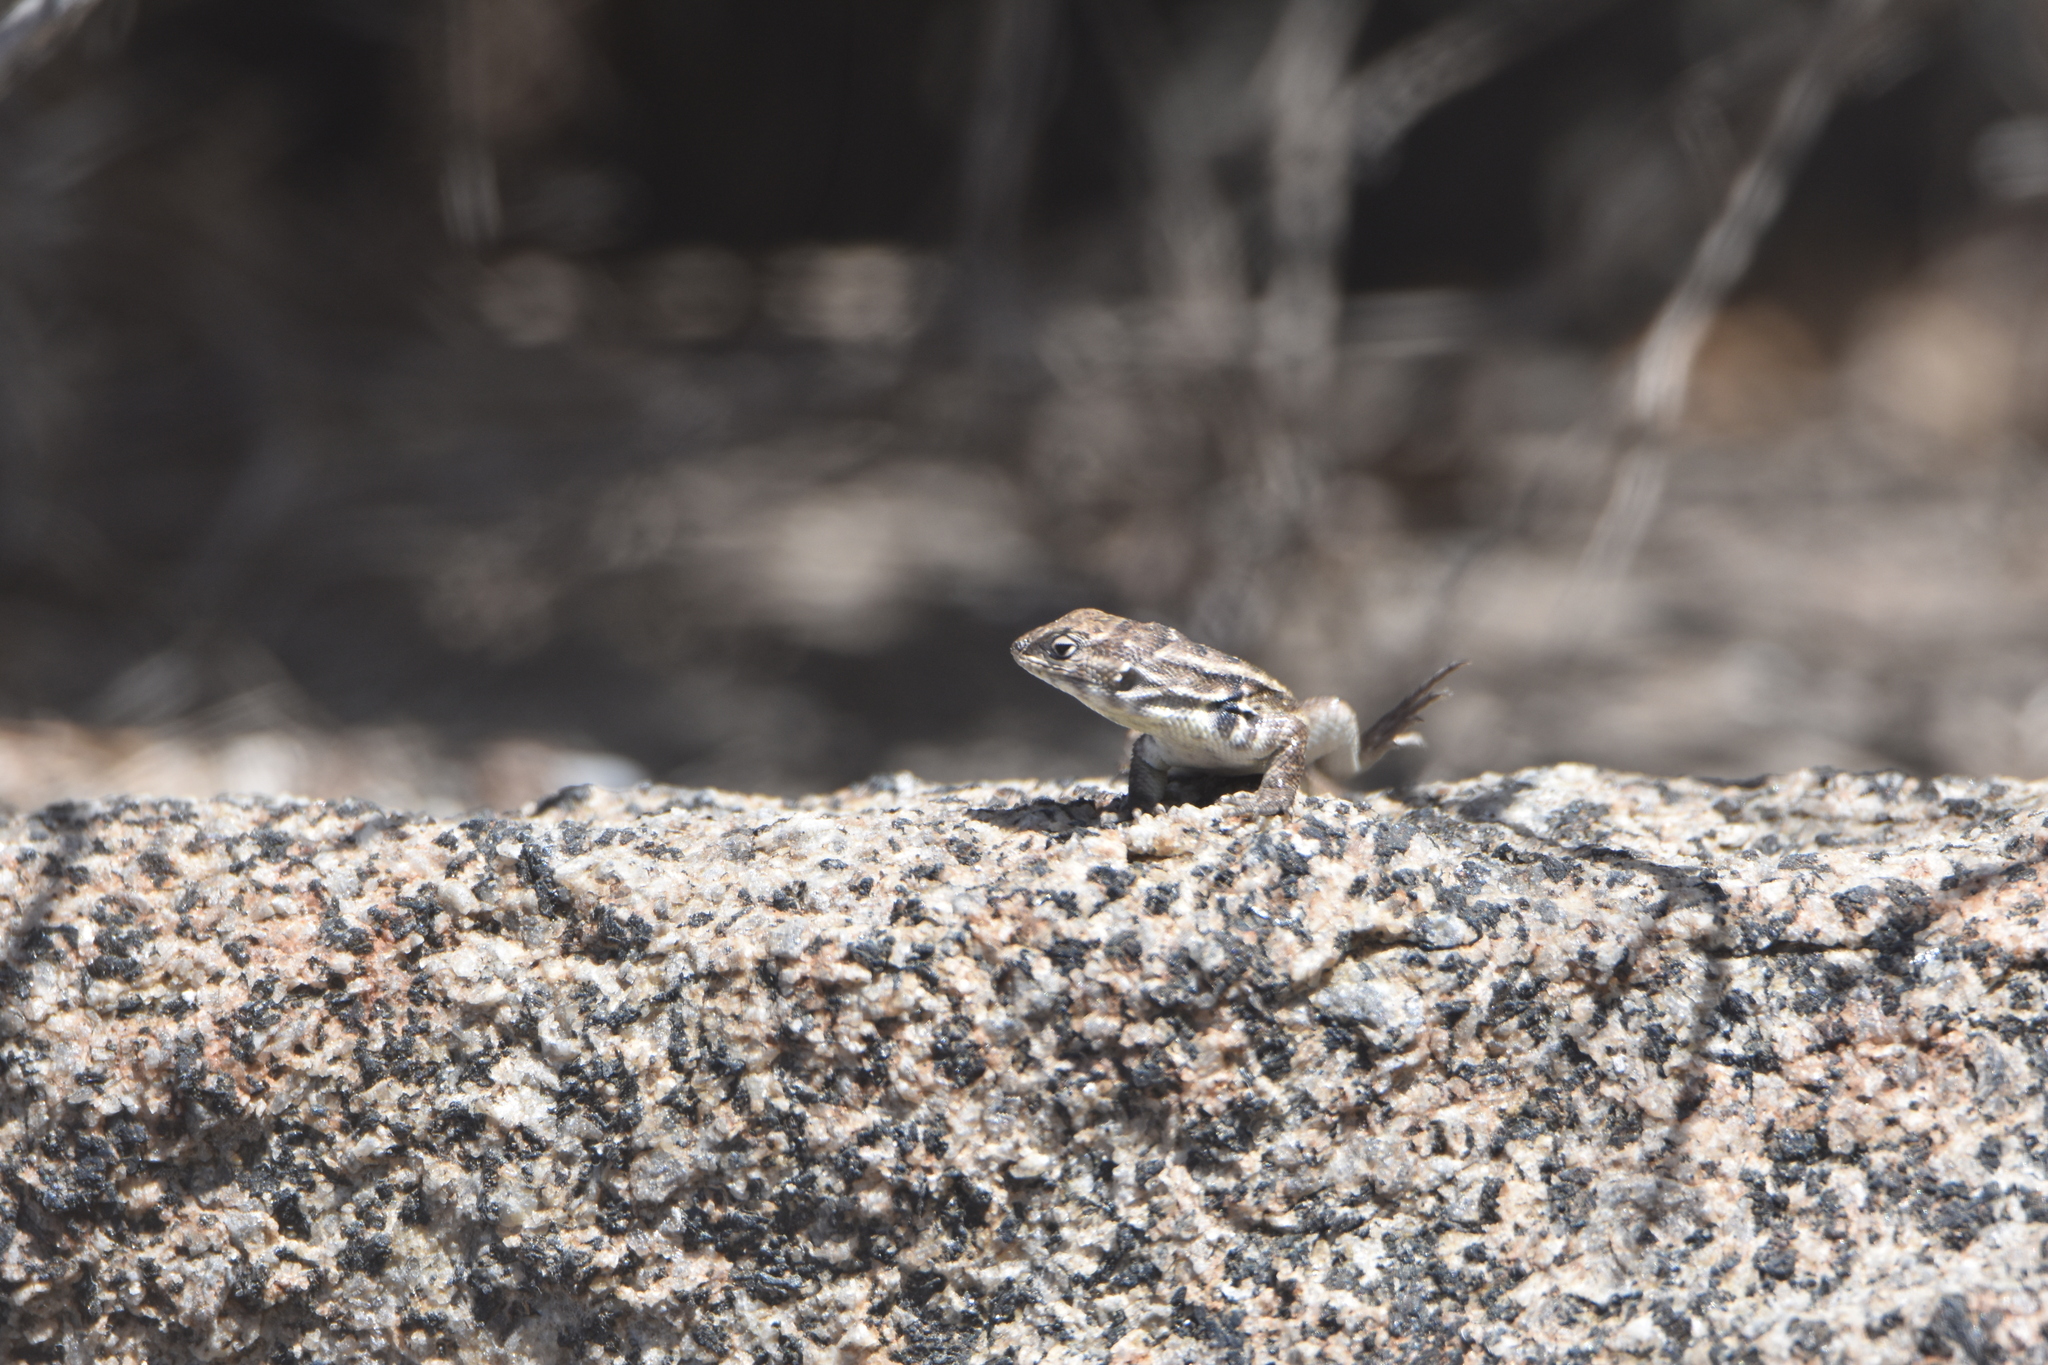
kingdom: Animalia
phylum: Chordata
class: Squamata
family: Liolaemidae
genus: Liolaemus
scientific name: Liolaemus zapallarensis
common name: Zapallaren tree iguana
